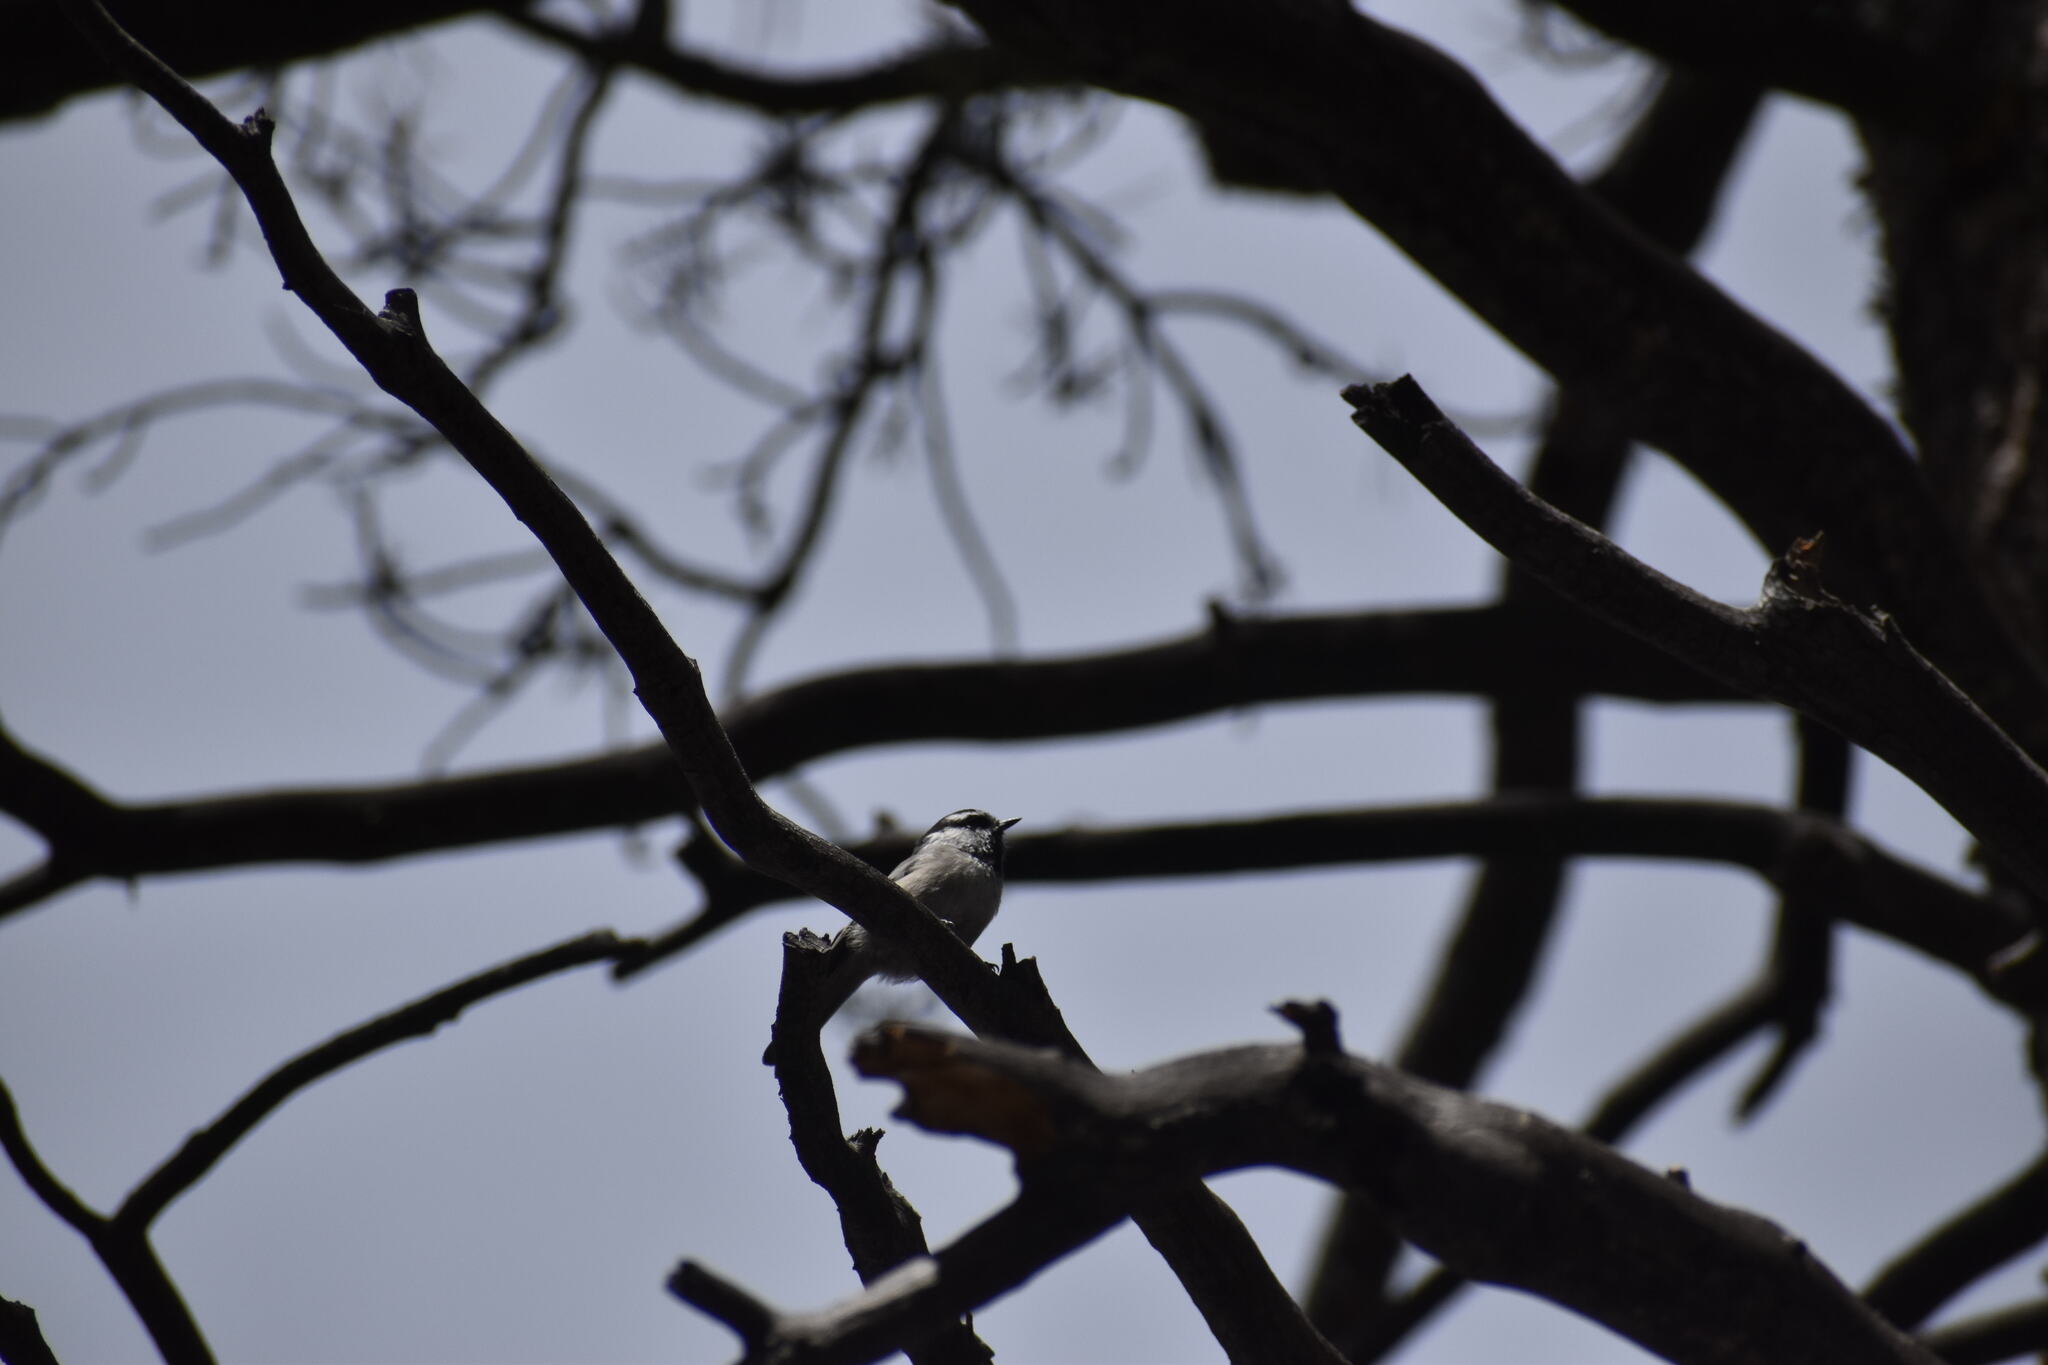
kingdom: Animalia
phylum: Chordata
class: Aves
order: Passeriformes
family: Paridae
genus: Poecile
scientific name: Poecile gambeli
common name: Mountain chickadee
